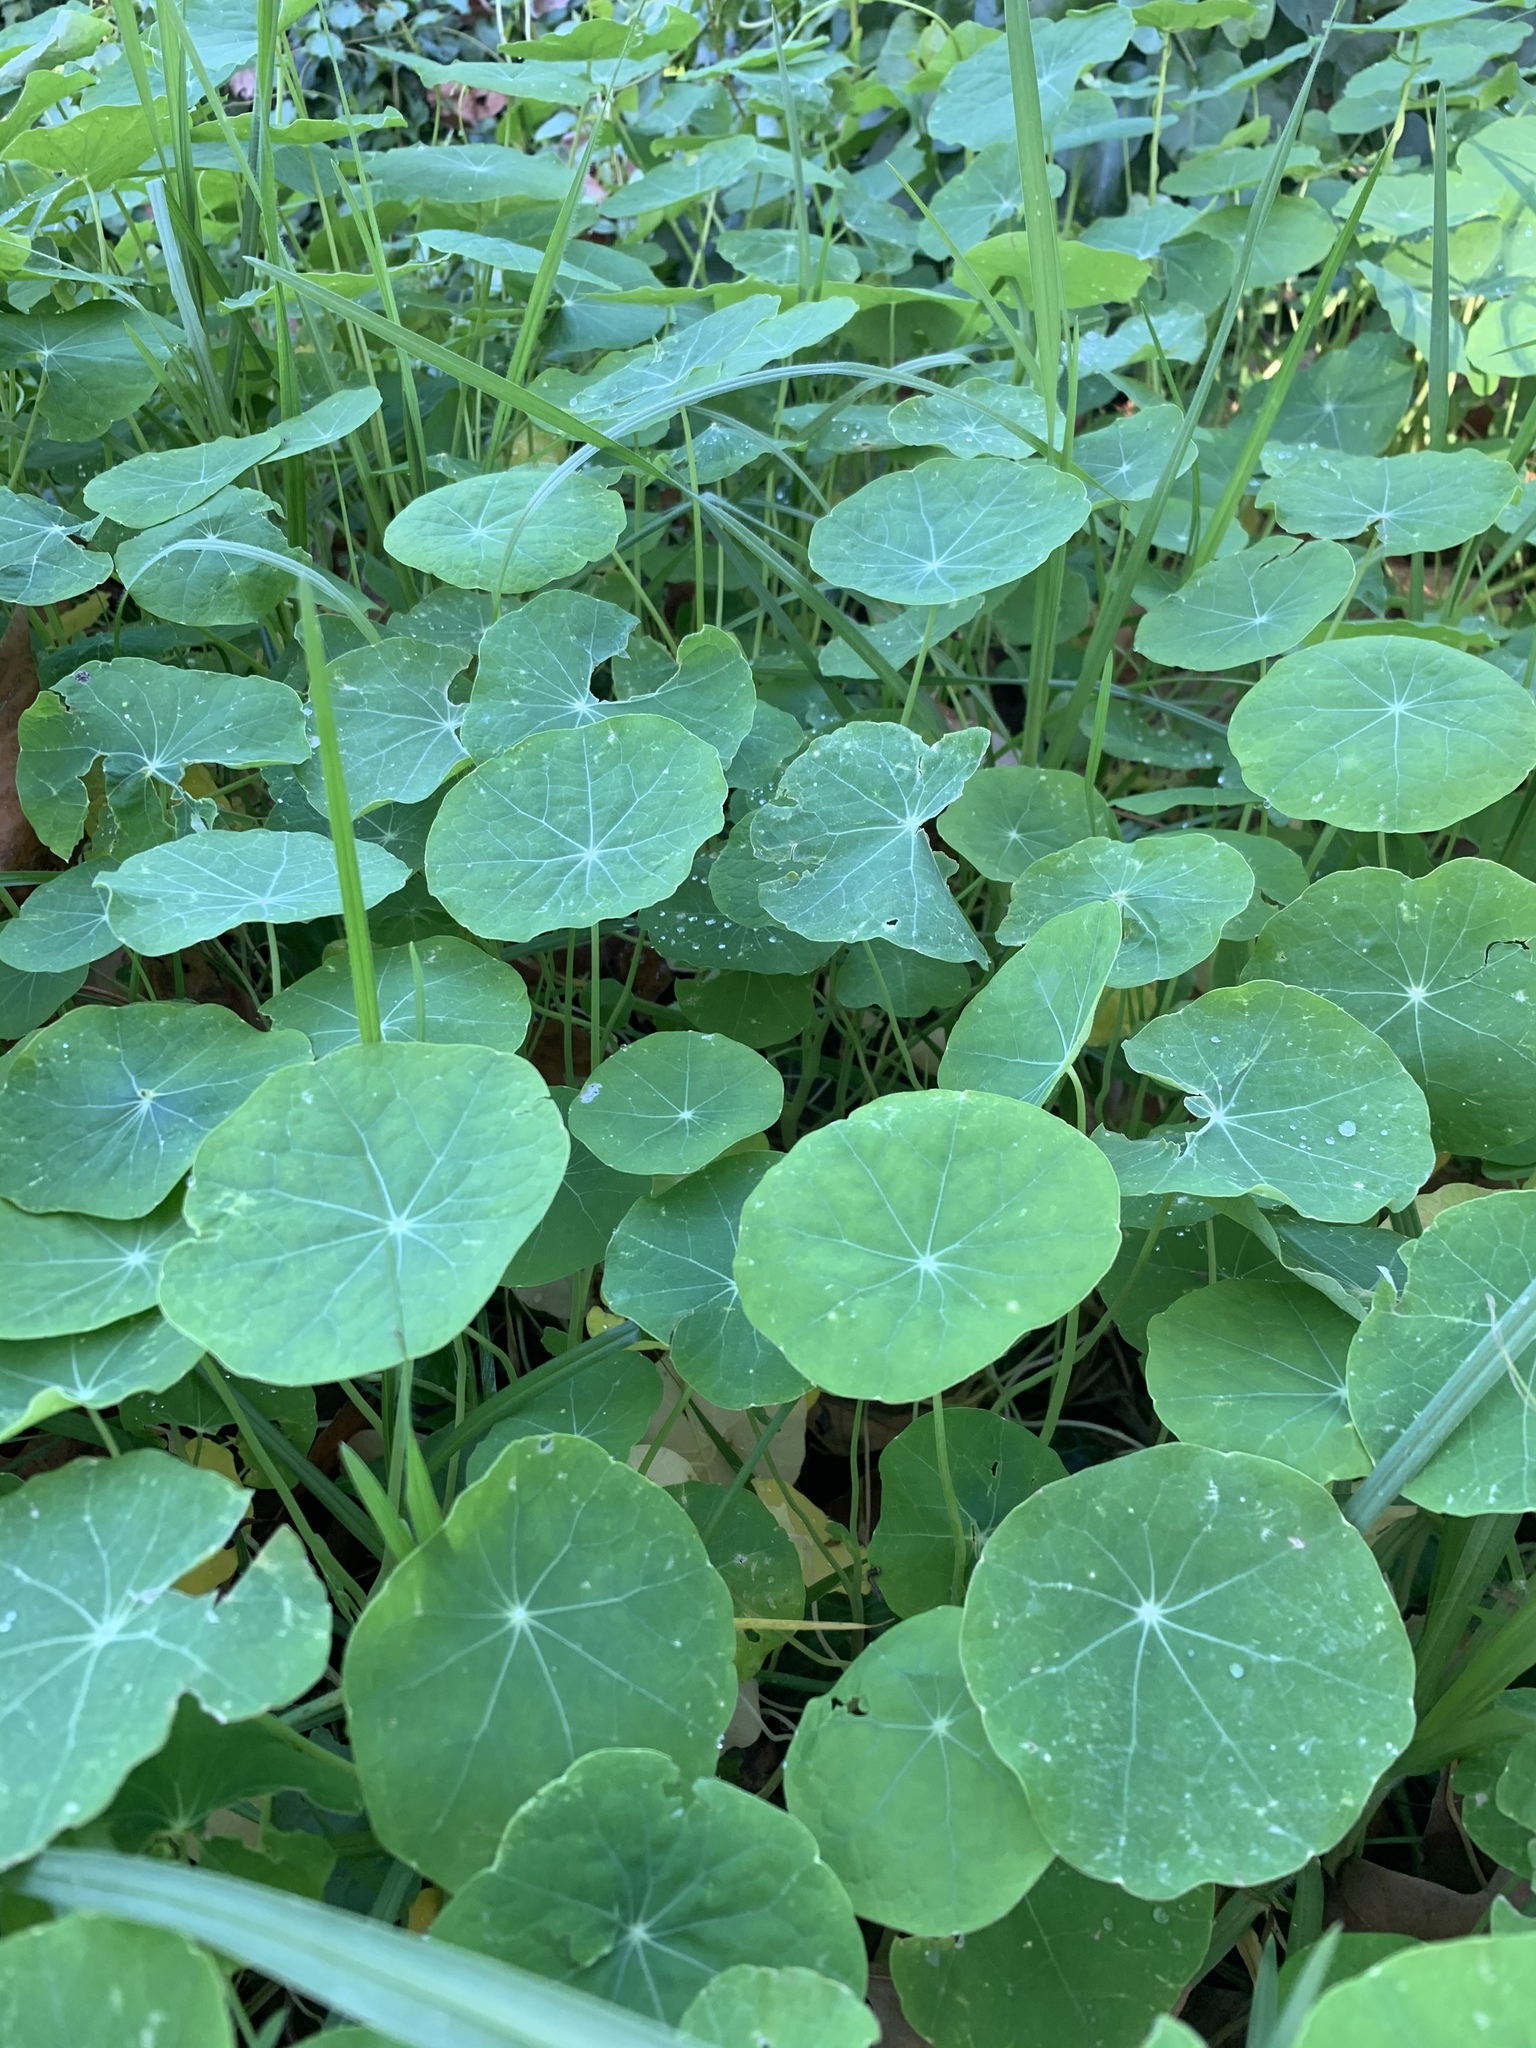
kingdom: Plantae
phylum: Tracheophyta
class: Magnoliopsida
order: Brassicales
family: Tropaeolaceae
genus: Tropaeolum
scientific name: Tropaeolum majus
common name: Nasturtium
